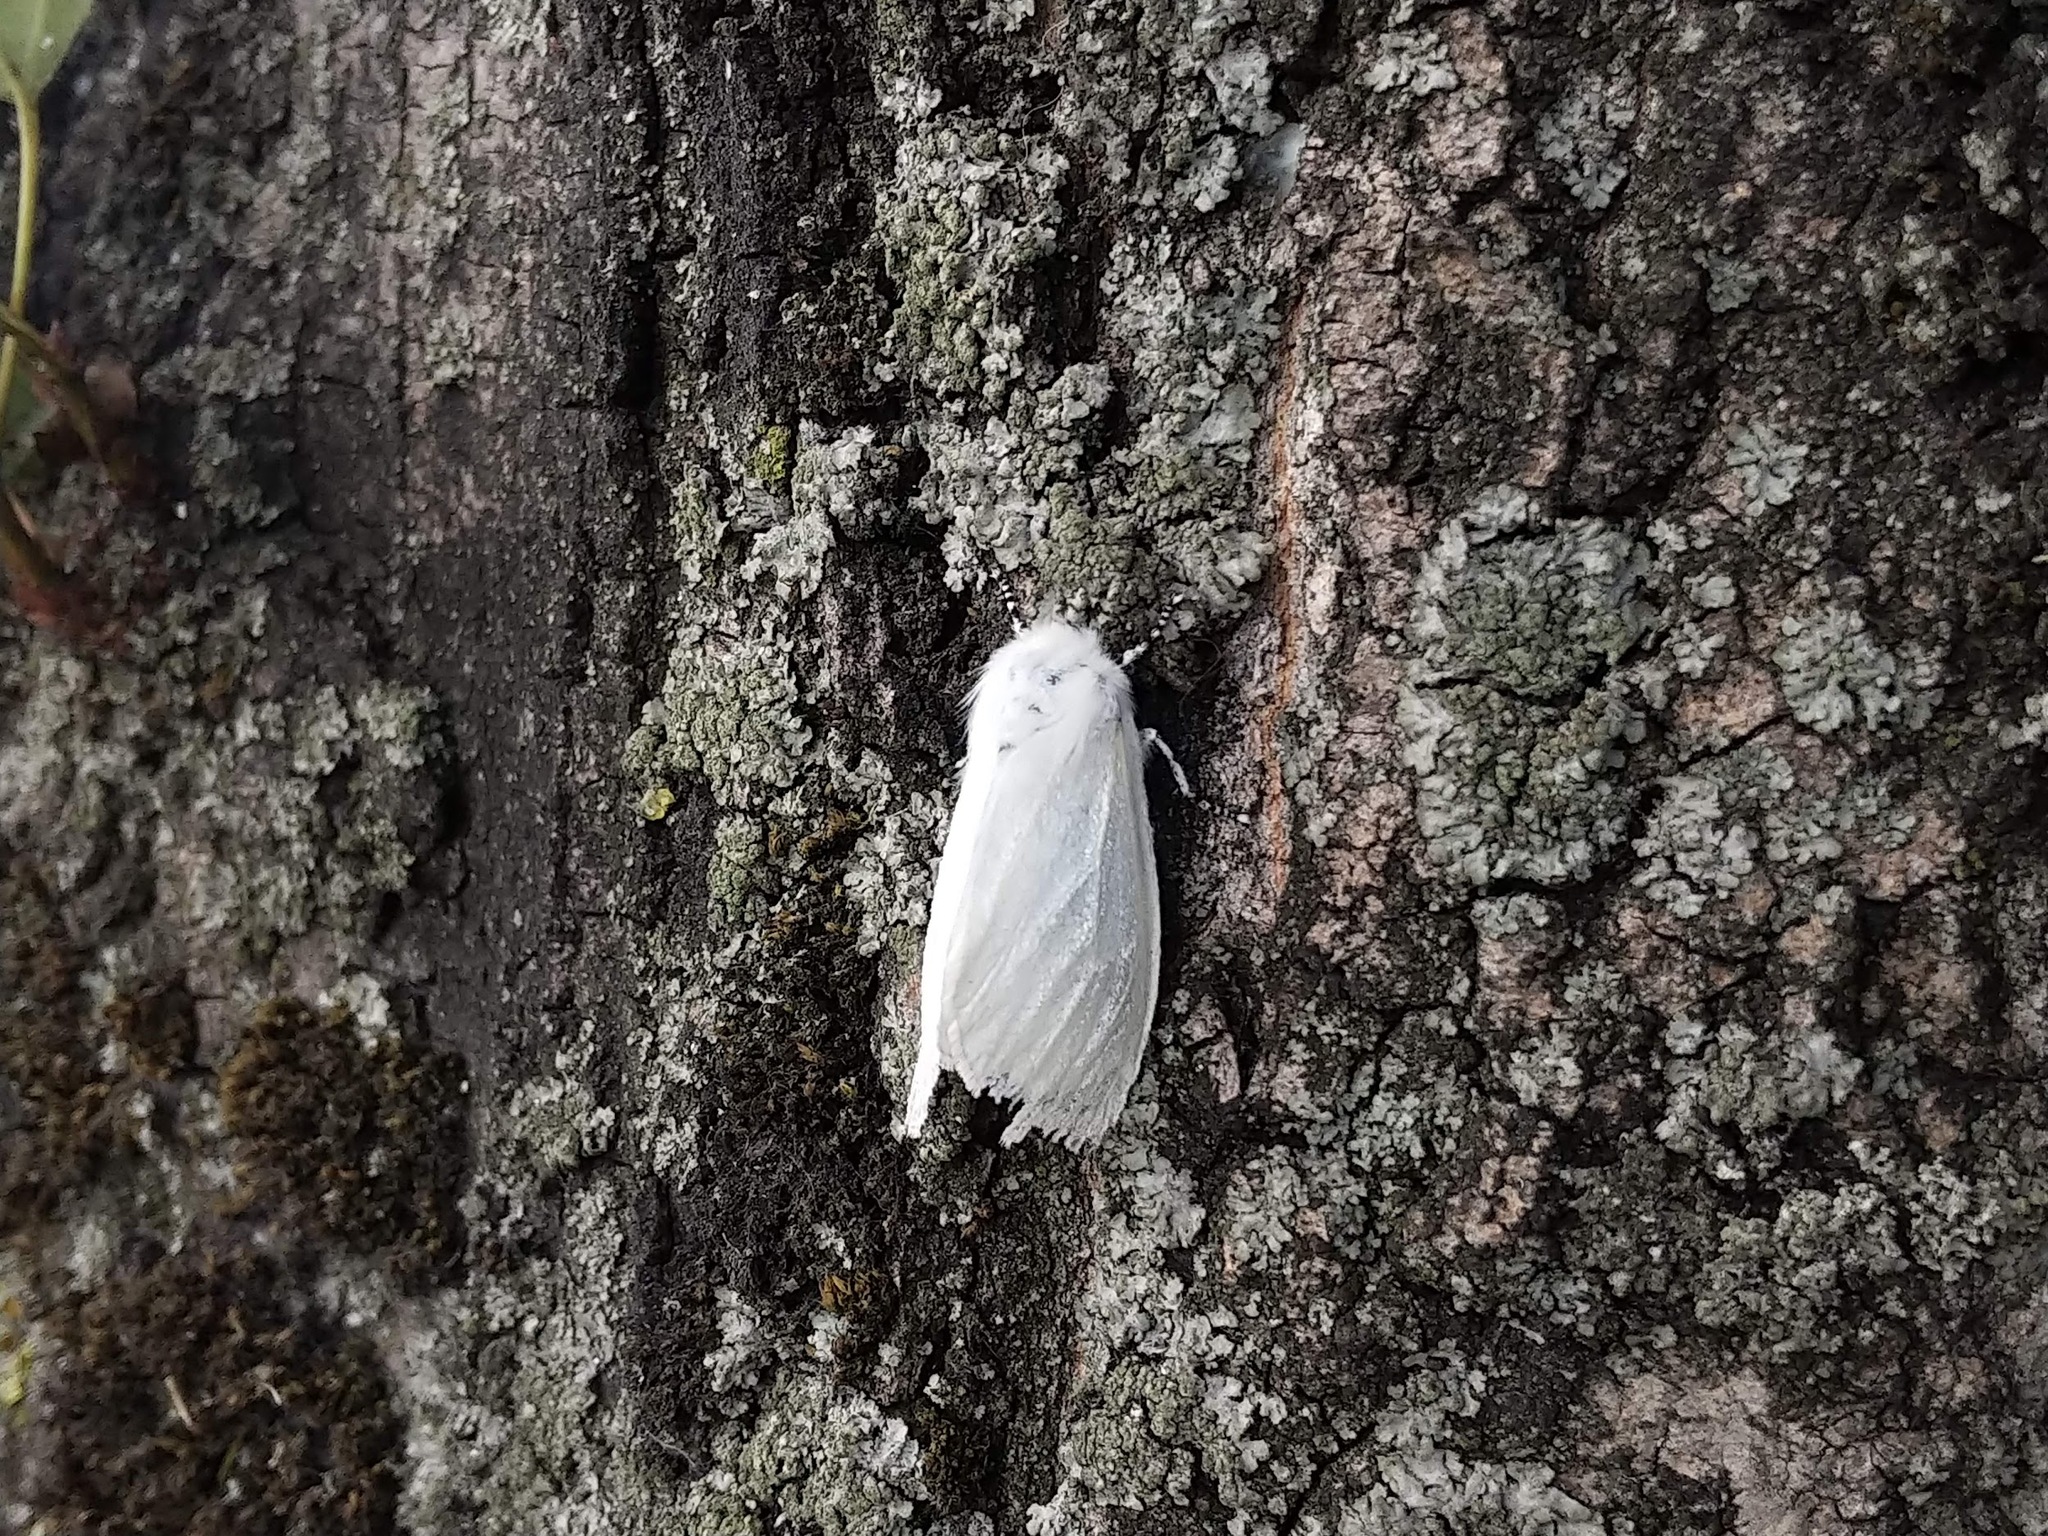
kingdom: Animalia
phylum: Arthropoda
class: Insecta
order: Lepidoptera
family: Erebidae
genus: Leucoma
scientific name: Leucoma salicis
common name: White satin moth
